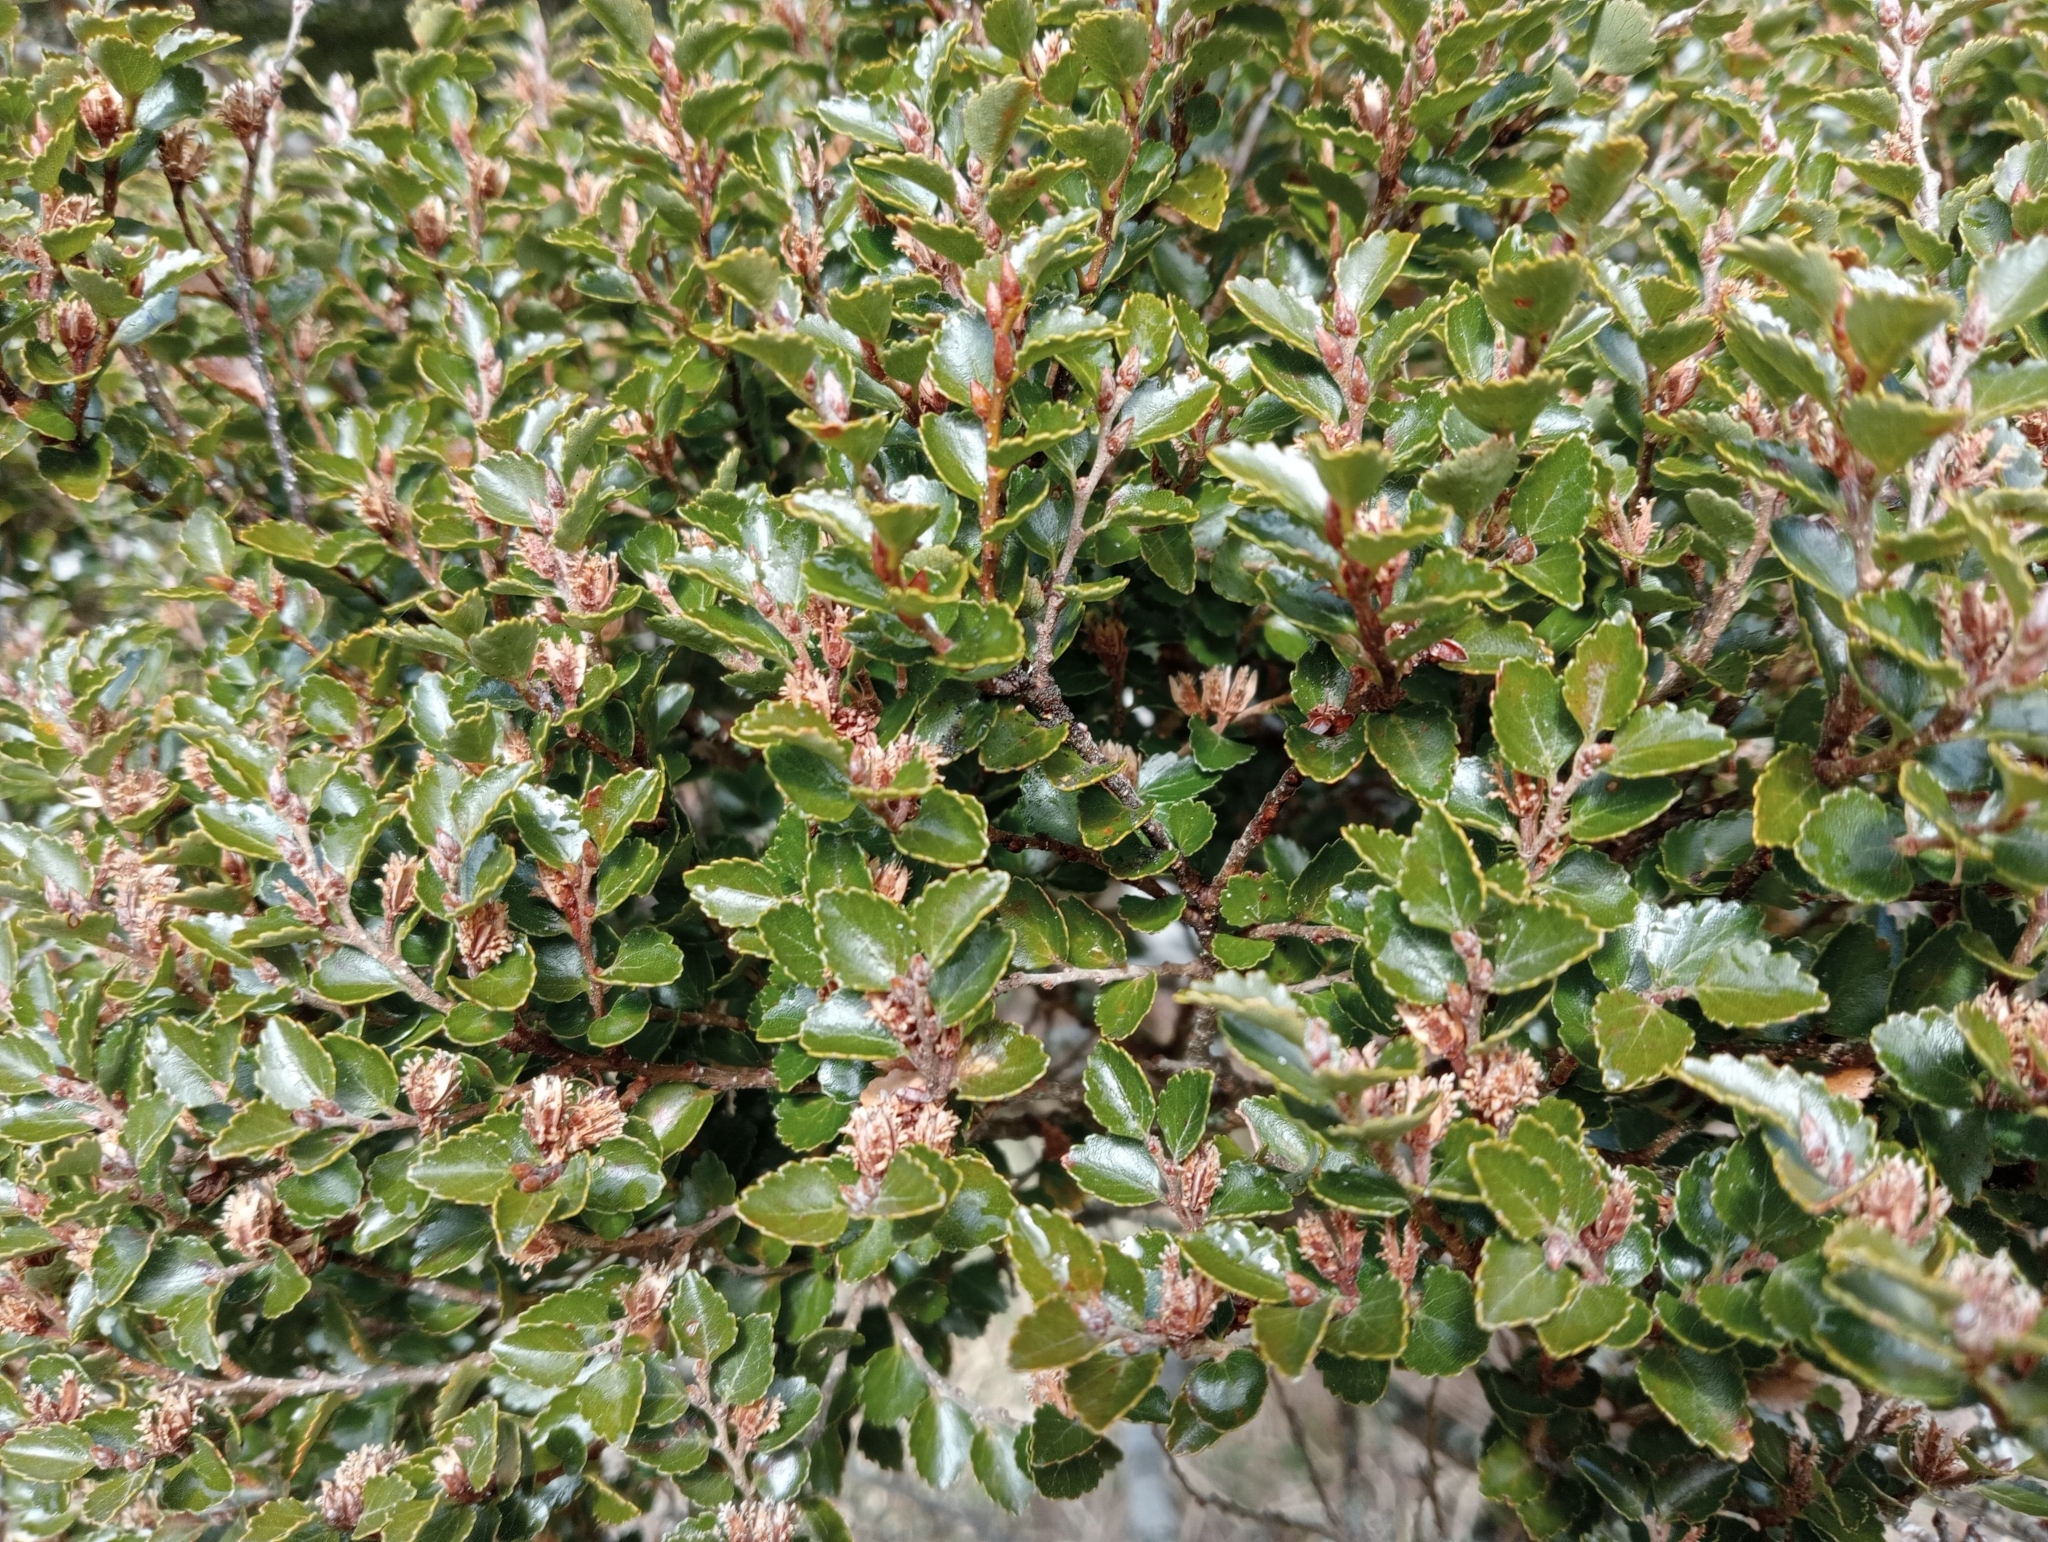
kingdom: Plantae
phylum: Tracheophyta
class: Magnoliopsida
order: Fagales
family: Nothofagaceae
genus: Nothofagus
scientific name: Nothofagus menziesii
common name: Silver beech
